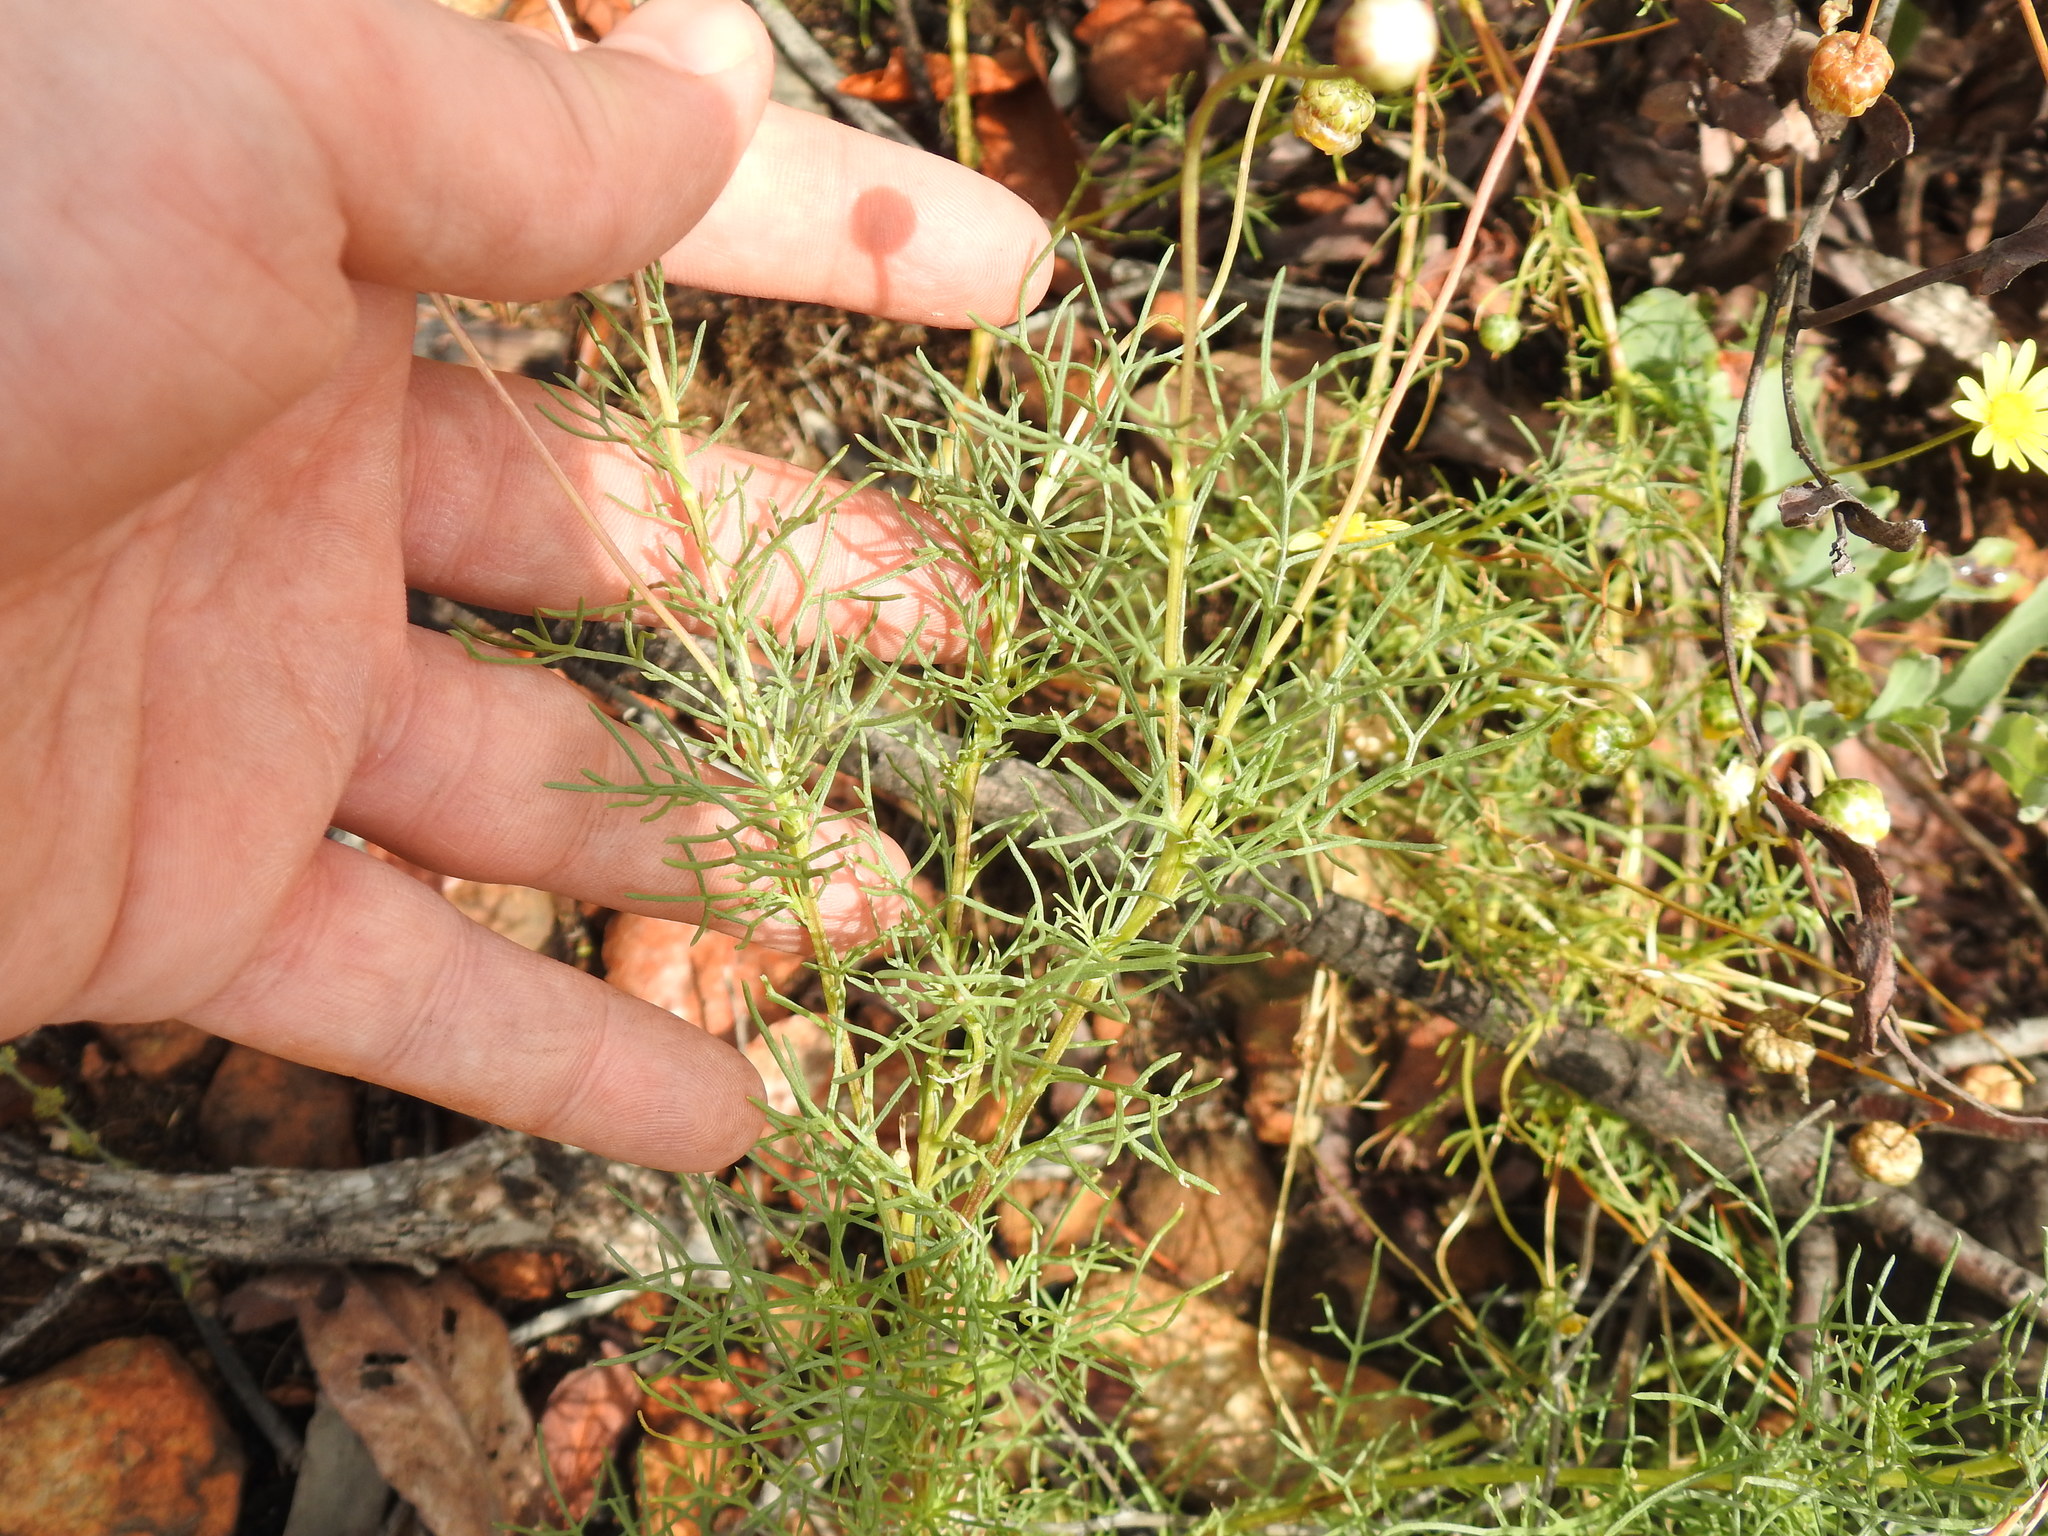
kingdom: Plantae
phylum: Tracheophyta
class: Magnoliopsida
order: Asterales
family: Asteraceae
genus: Senecio
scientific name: Senecio inaequidens
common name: Narrow-leaved ragwort
